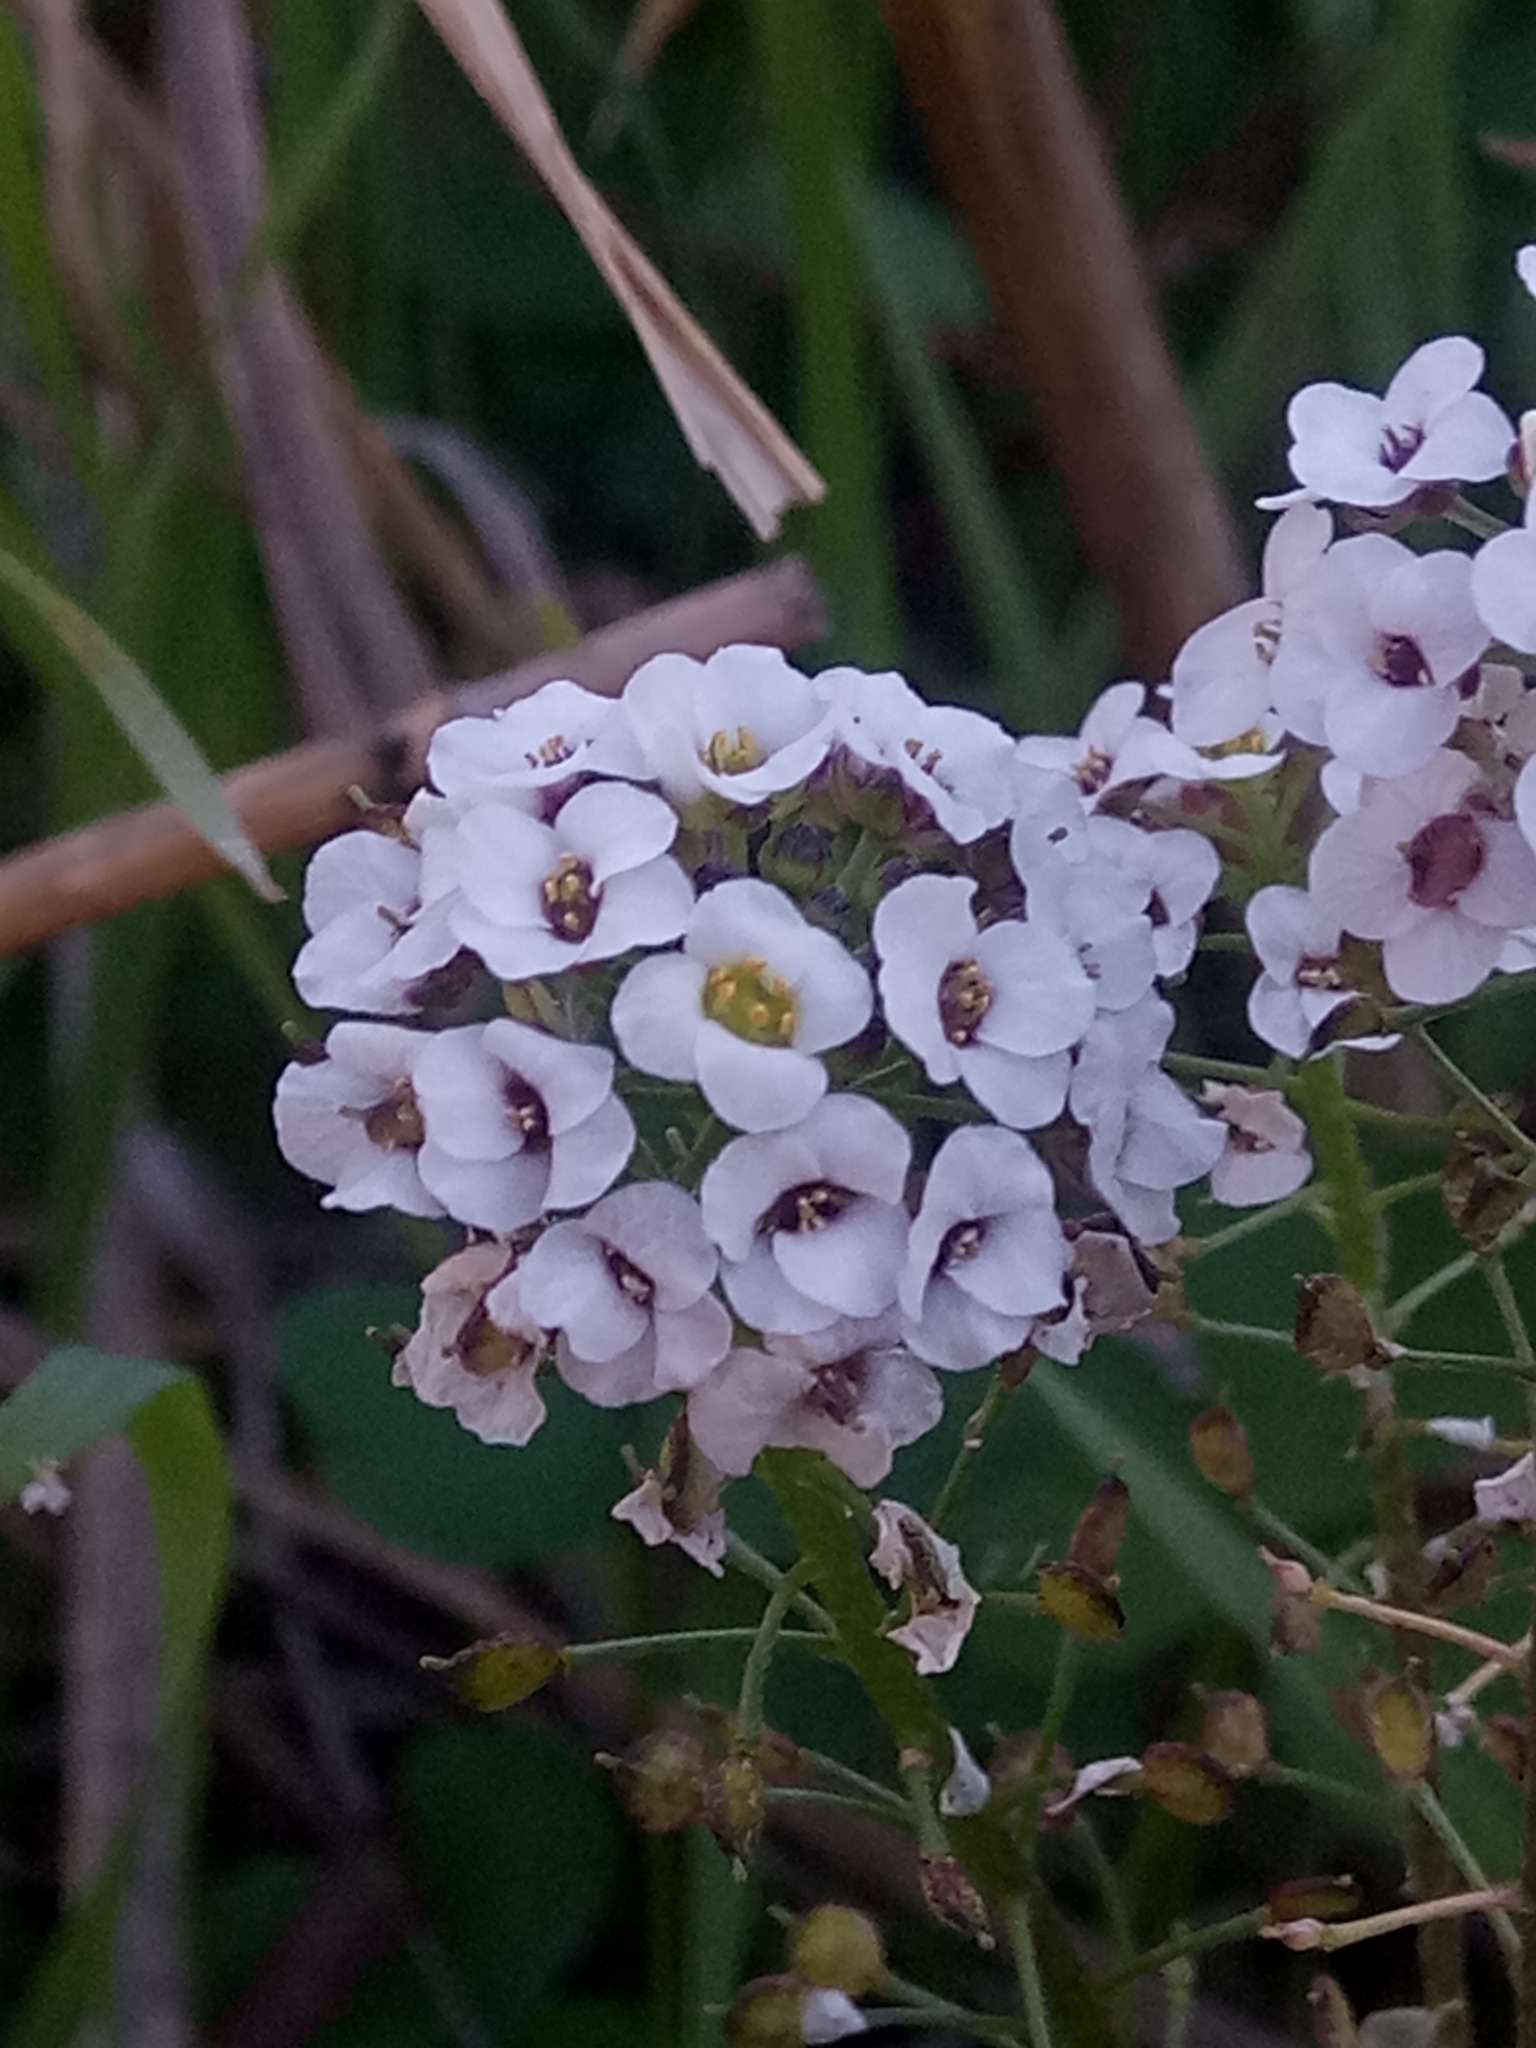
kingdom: Plantae
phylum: Tracheophyta
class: Magnoliopsida
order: Brassicales
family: Brassicaceae
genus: Lobularia
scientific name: Lobularia maritima
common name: Sweet alison
